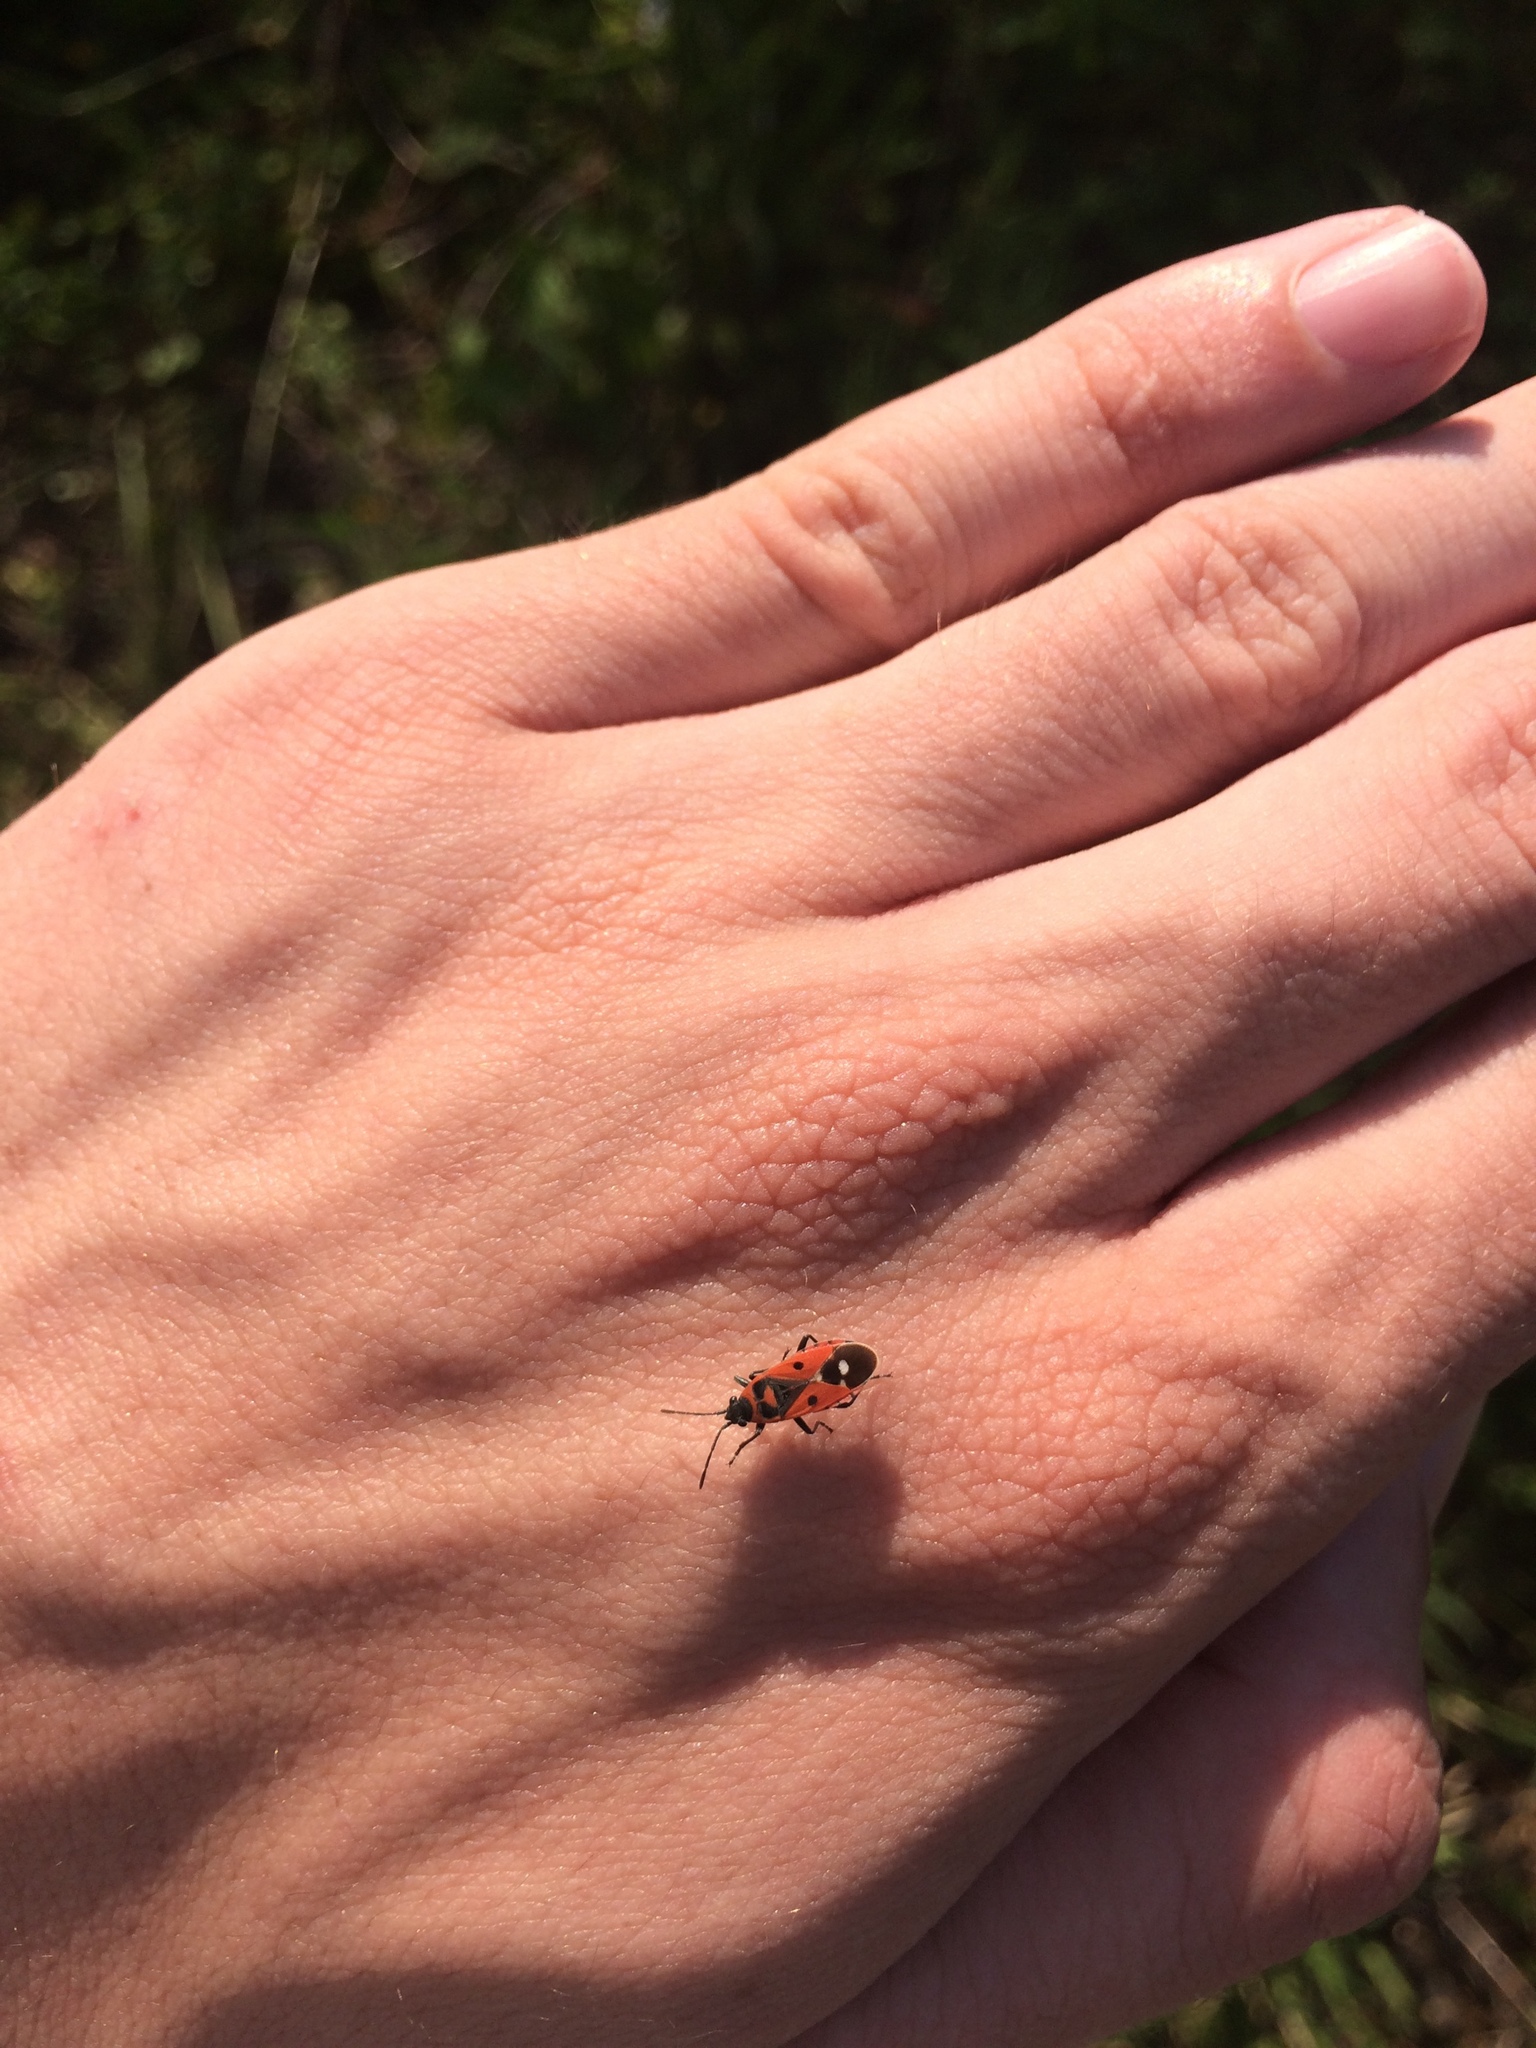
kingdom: Animalia
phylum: Arthropoda
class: Insecta
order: Hemiptera
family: Lygaeidae
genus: Melanocoryphus
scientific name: Melanocoryphus albomaculatus
